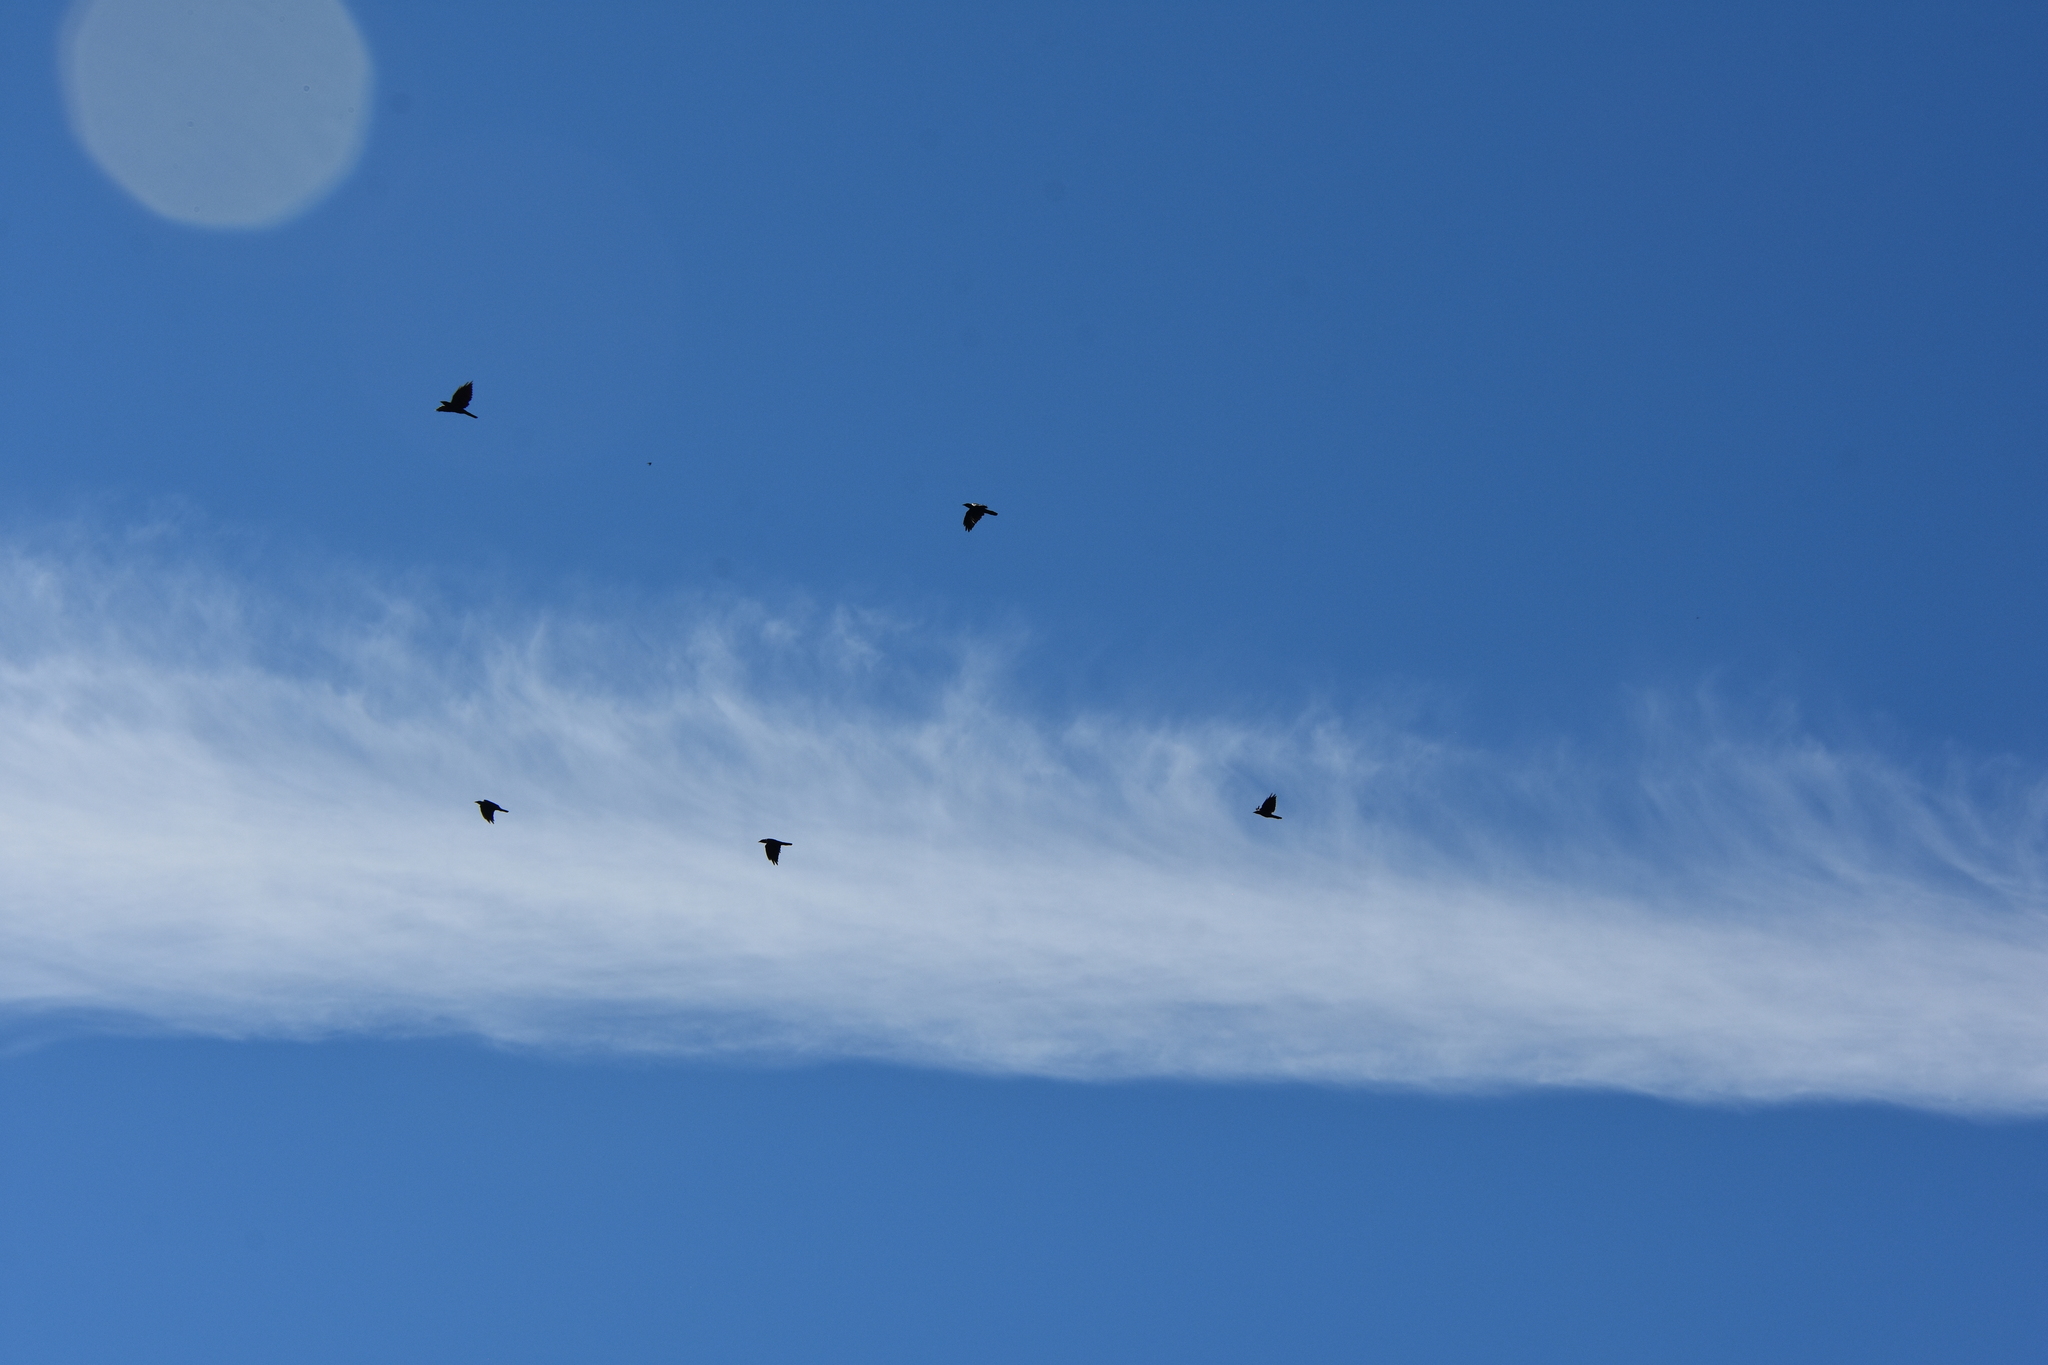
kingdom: Animalia
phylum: Chordata
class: Aves
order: Passeriformes
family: Corvidae
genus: Corvus
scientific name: Corvus
